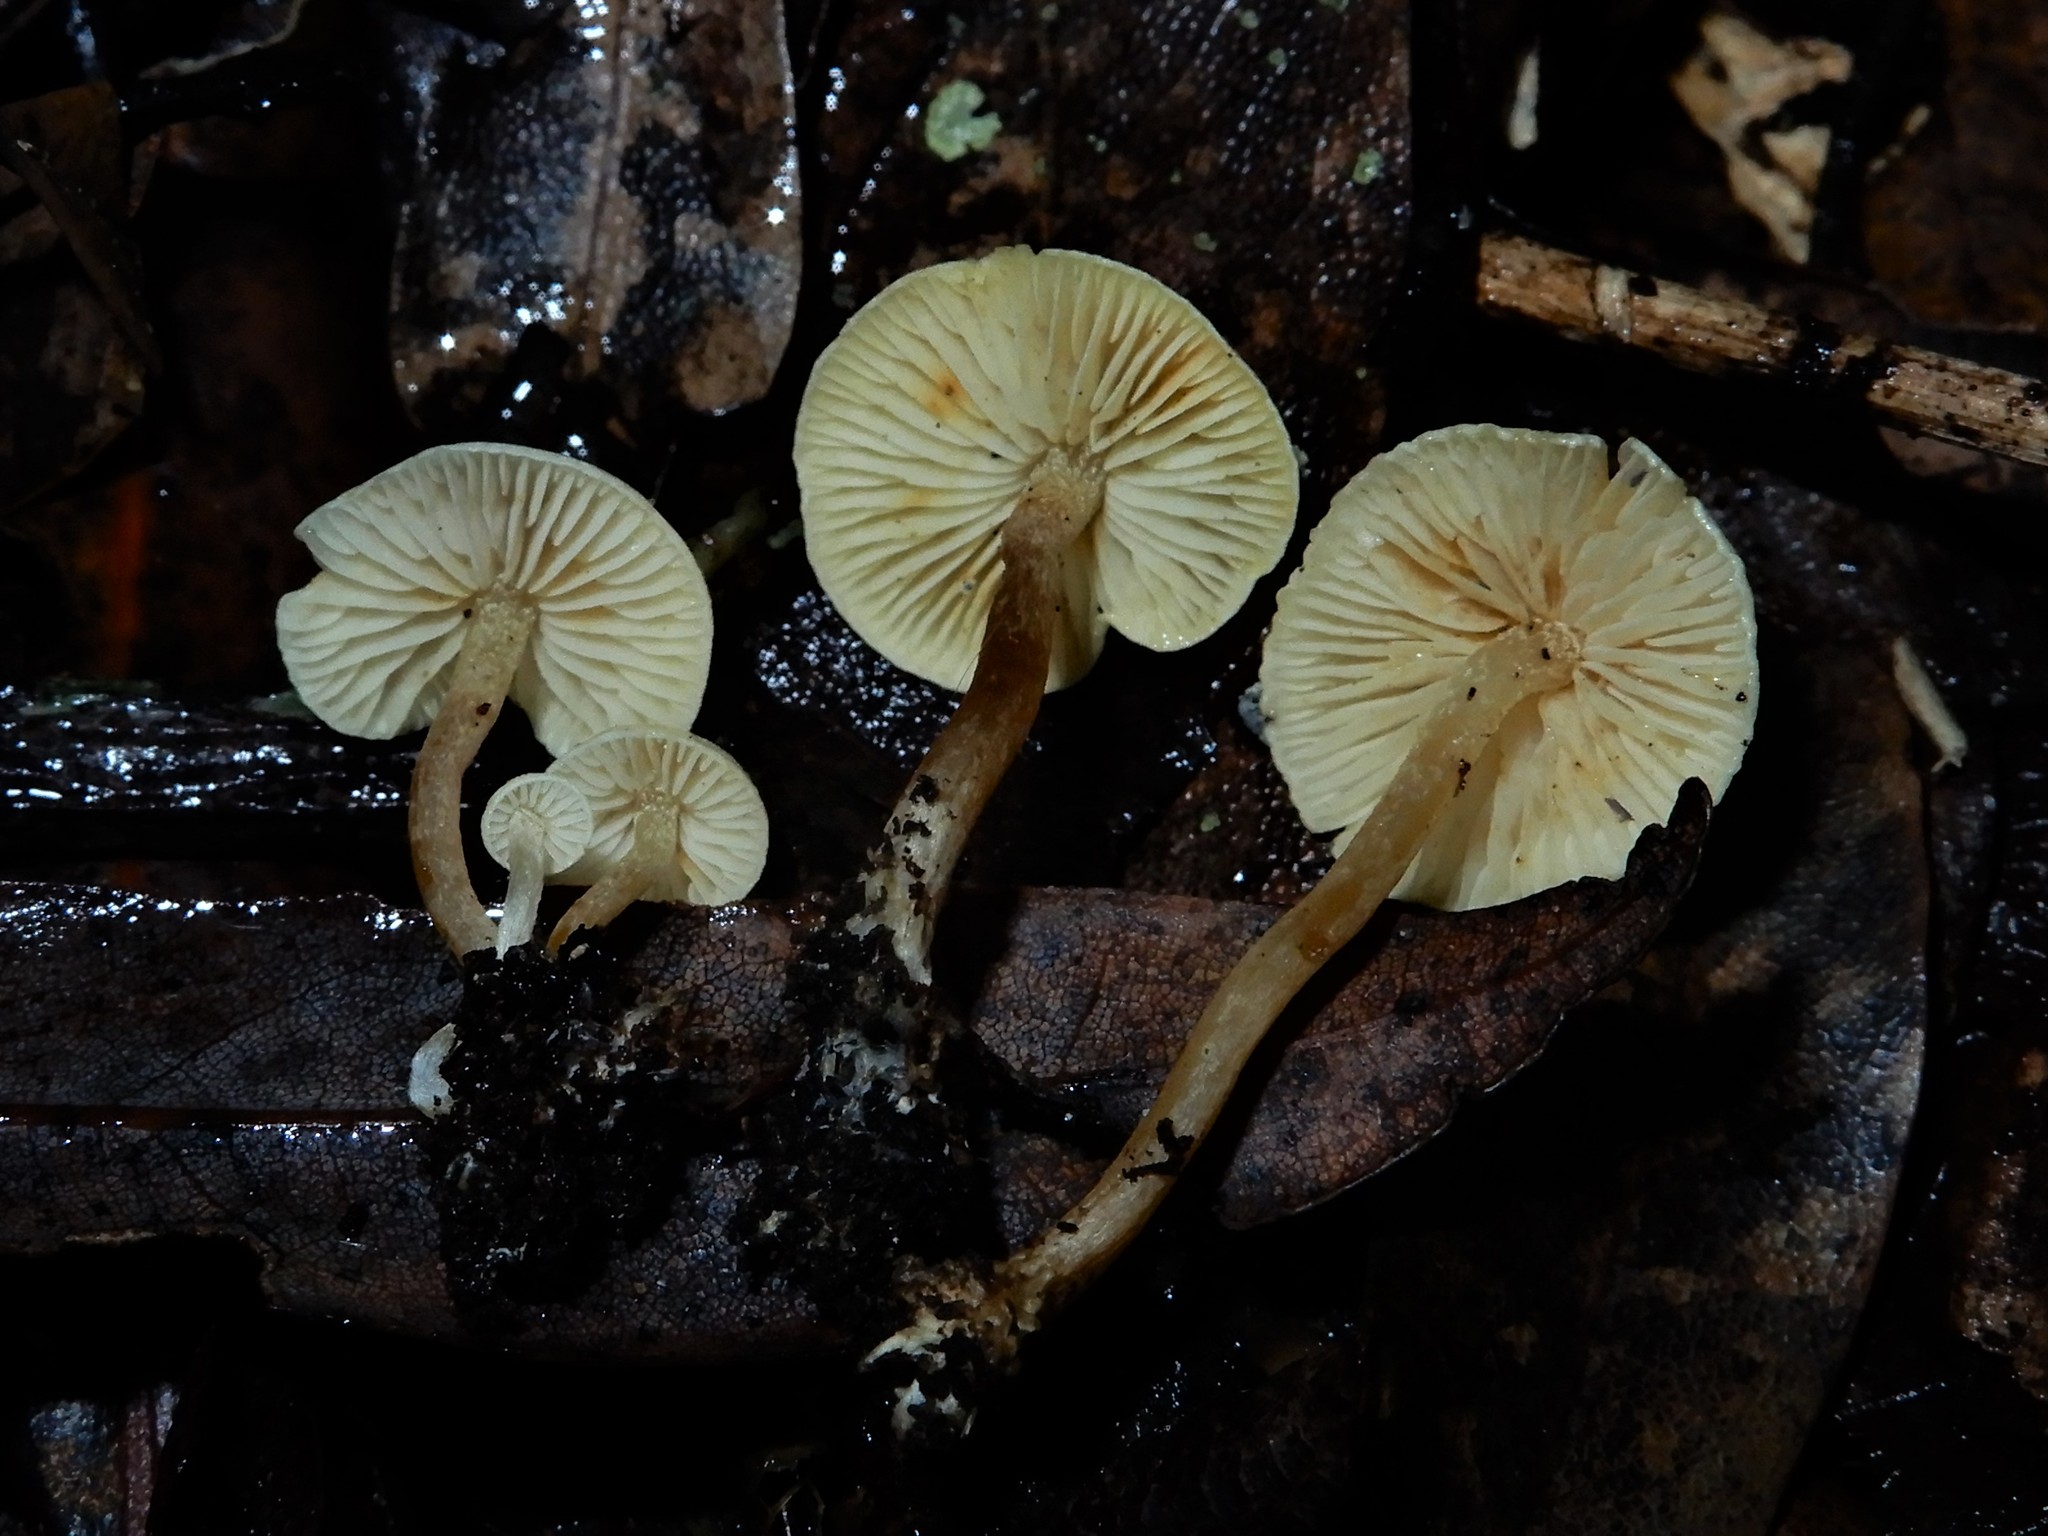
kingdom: Fungi
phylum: Basidiomycota
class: Agaricomycetes
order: Agaricales
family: Tricholomataceae
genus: Pseudobaeospora
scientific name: Pseudobaeospora
